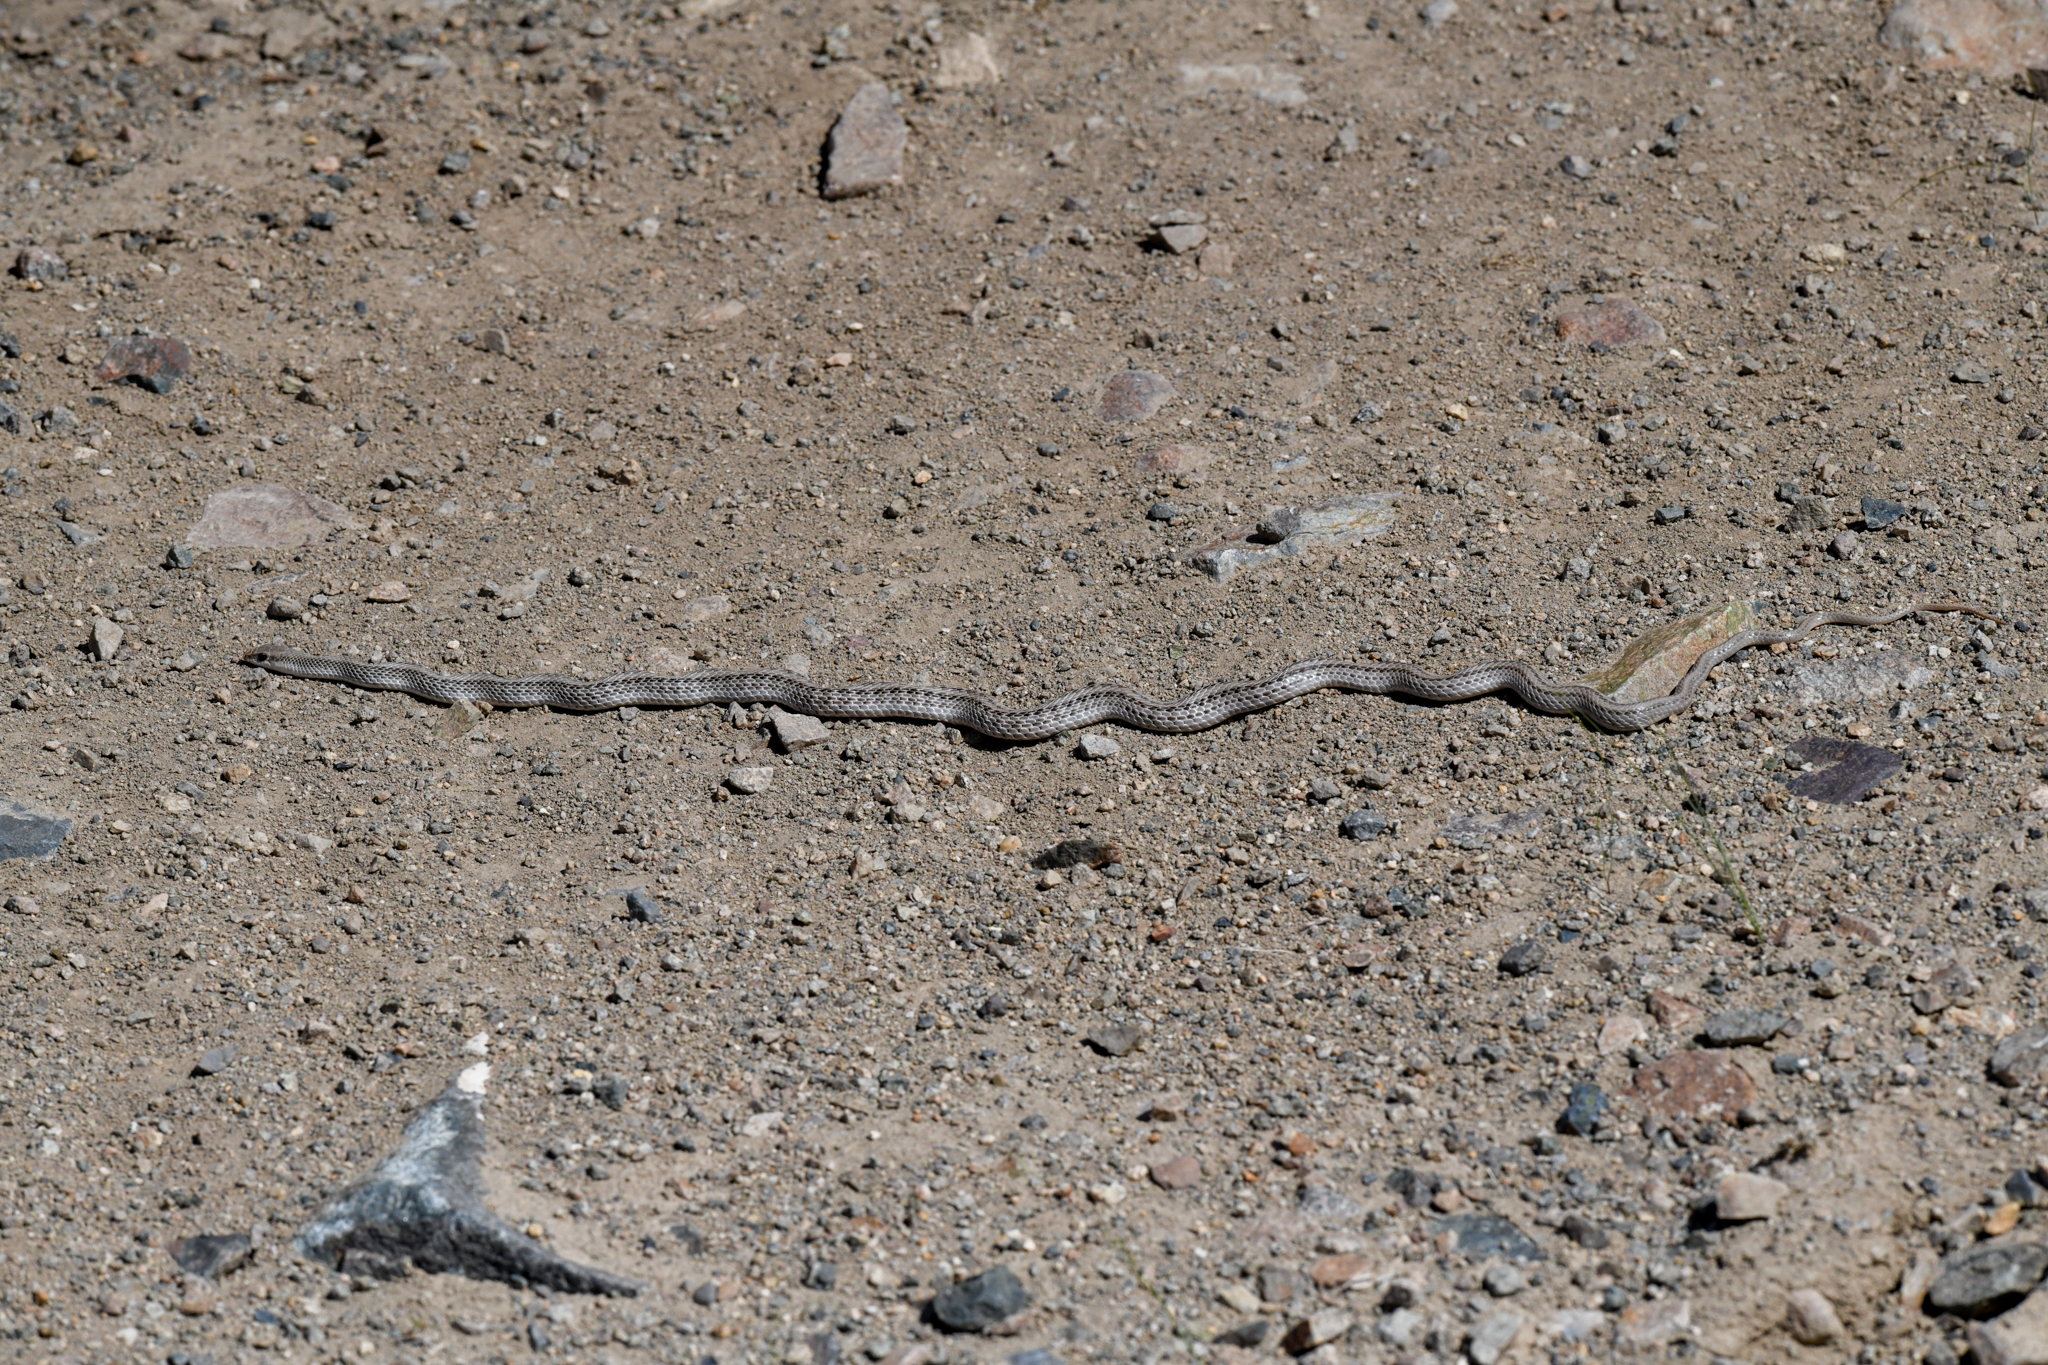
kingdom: Animalia
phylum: Chordata
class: Squamata
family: Colubridae
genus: Salvadora
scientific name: Salvadora hexalepis
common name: Western patchnose snake
